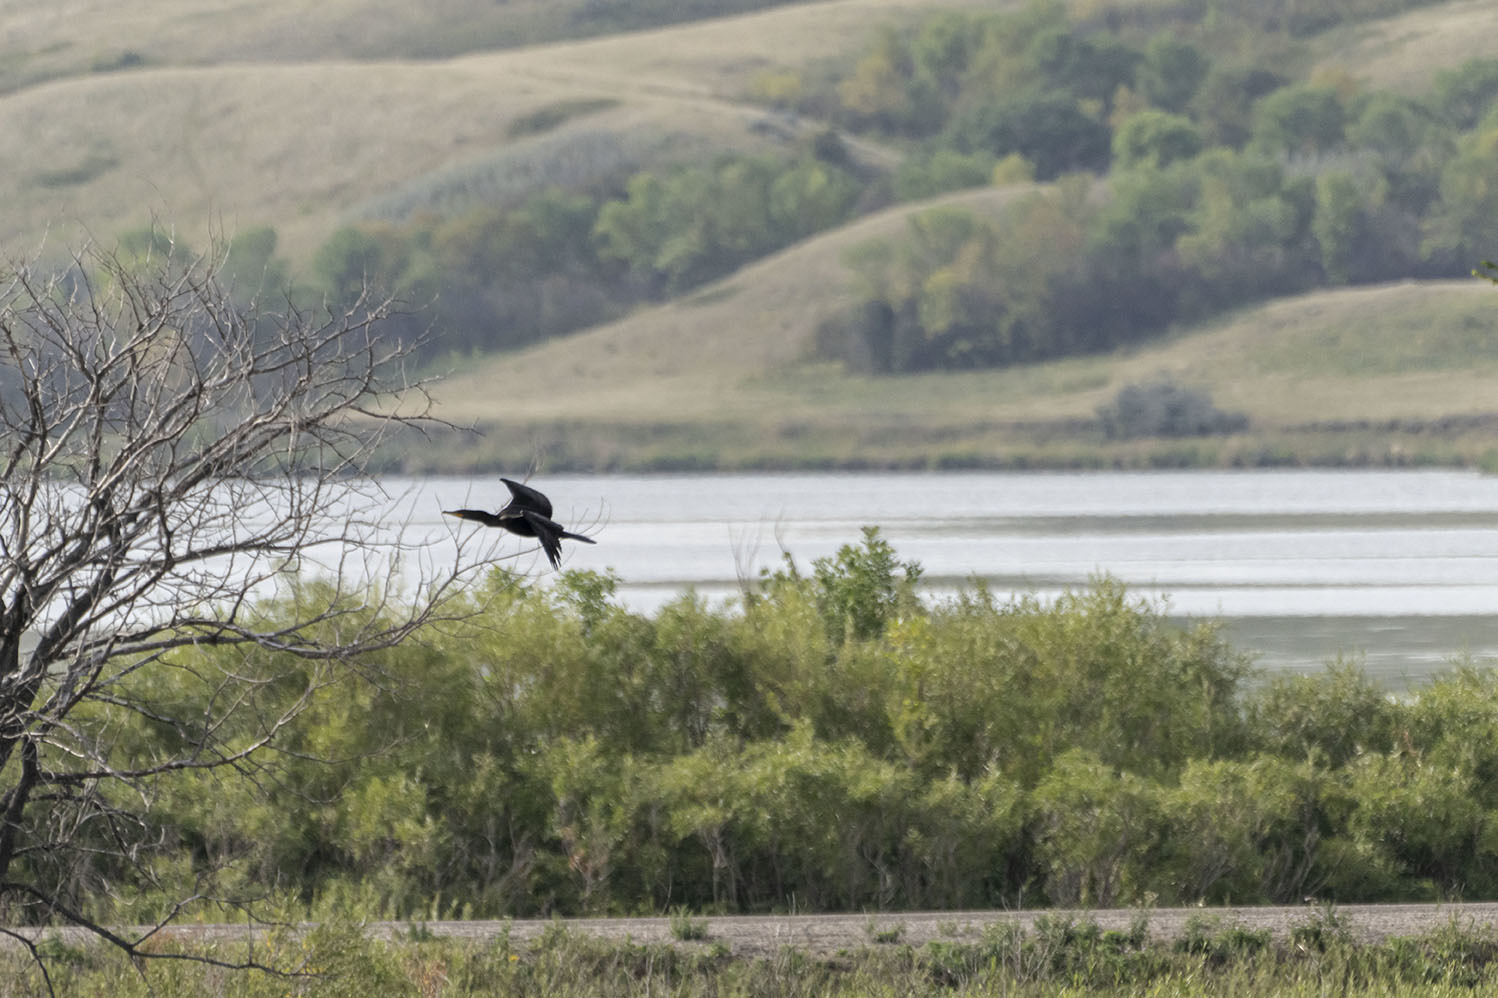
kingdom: Animalia
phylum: Chordata
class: Aves
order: Suliformes
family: Phalacrocoracidae
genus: Phalacrocorax
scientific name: Phalacrocorax auritus
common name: Double-crested cormorant
